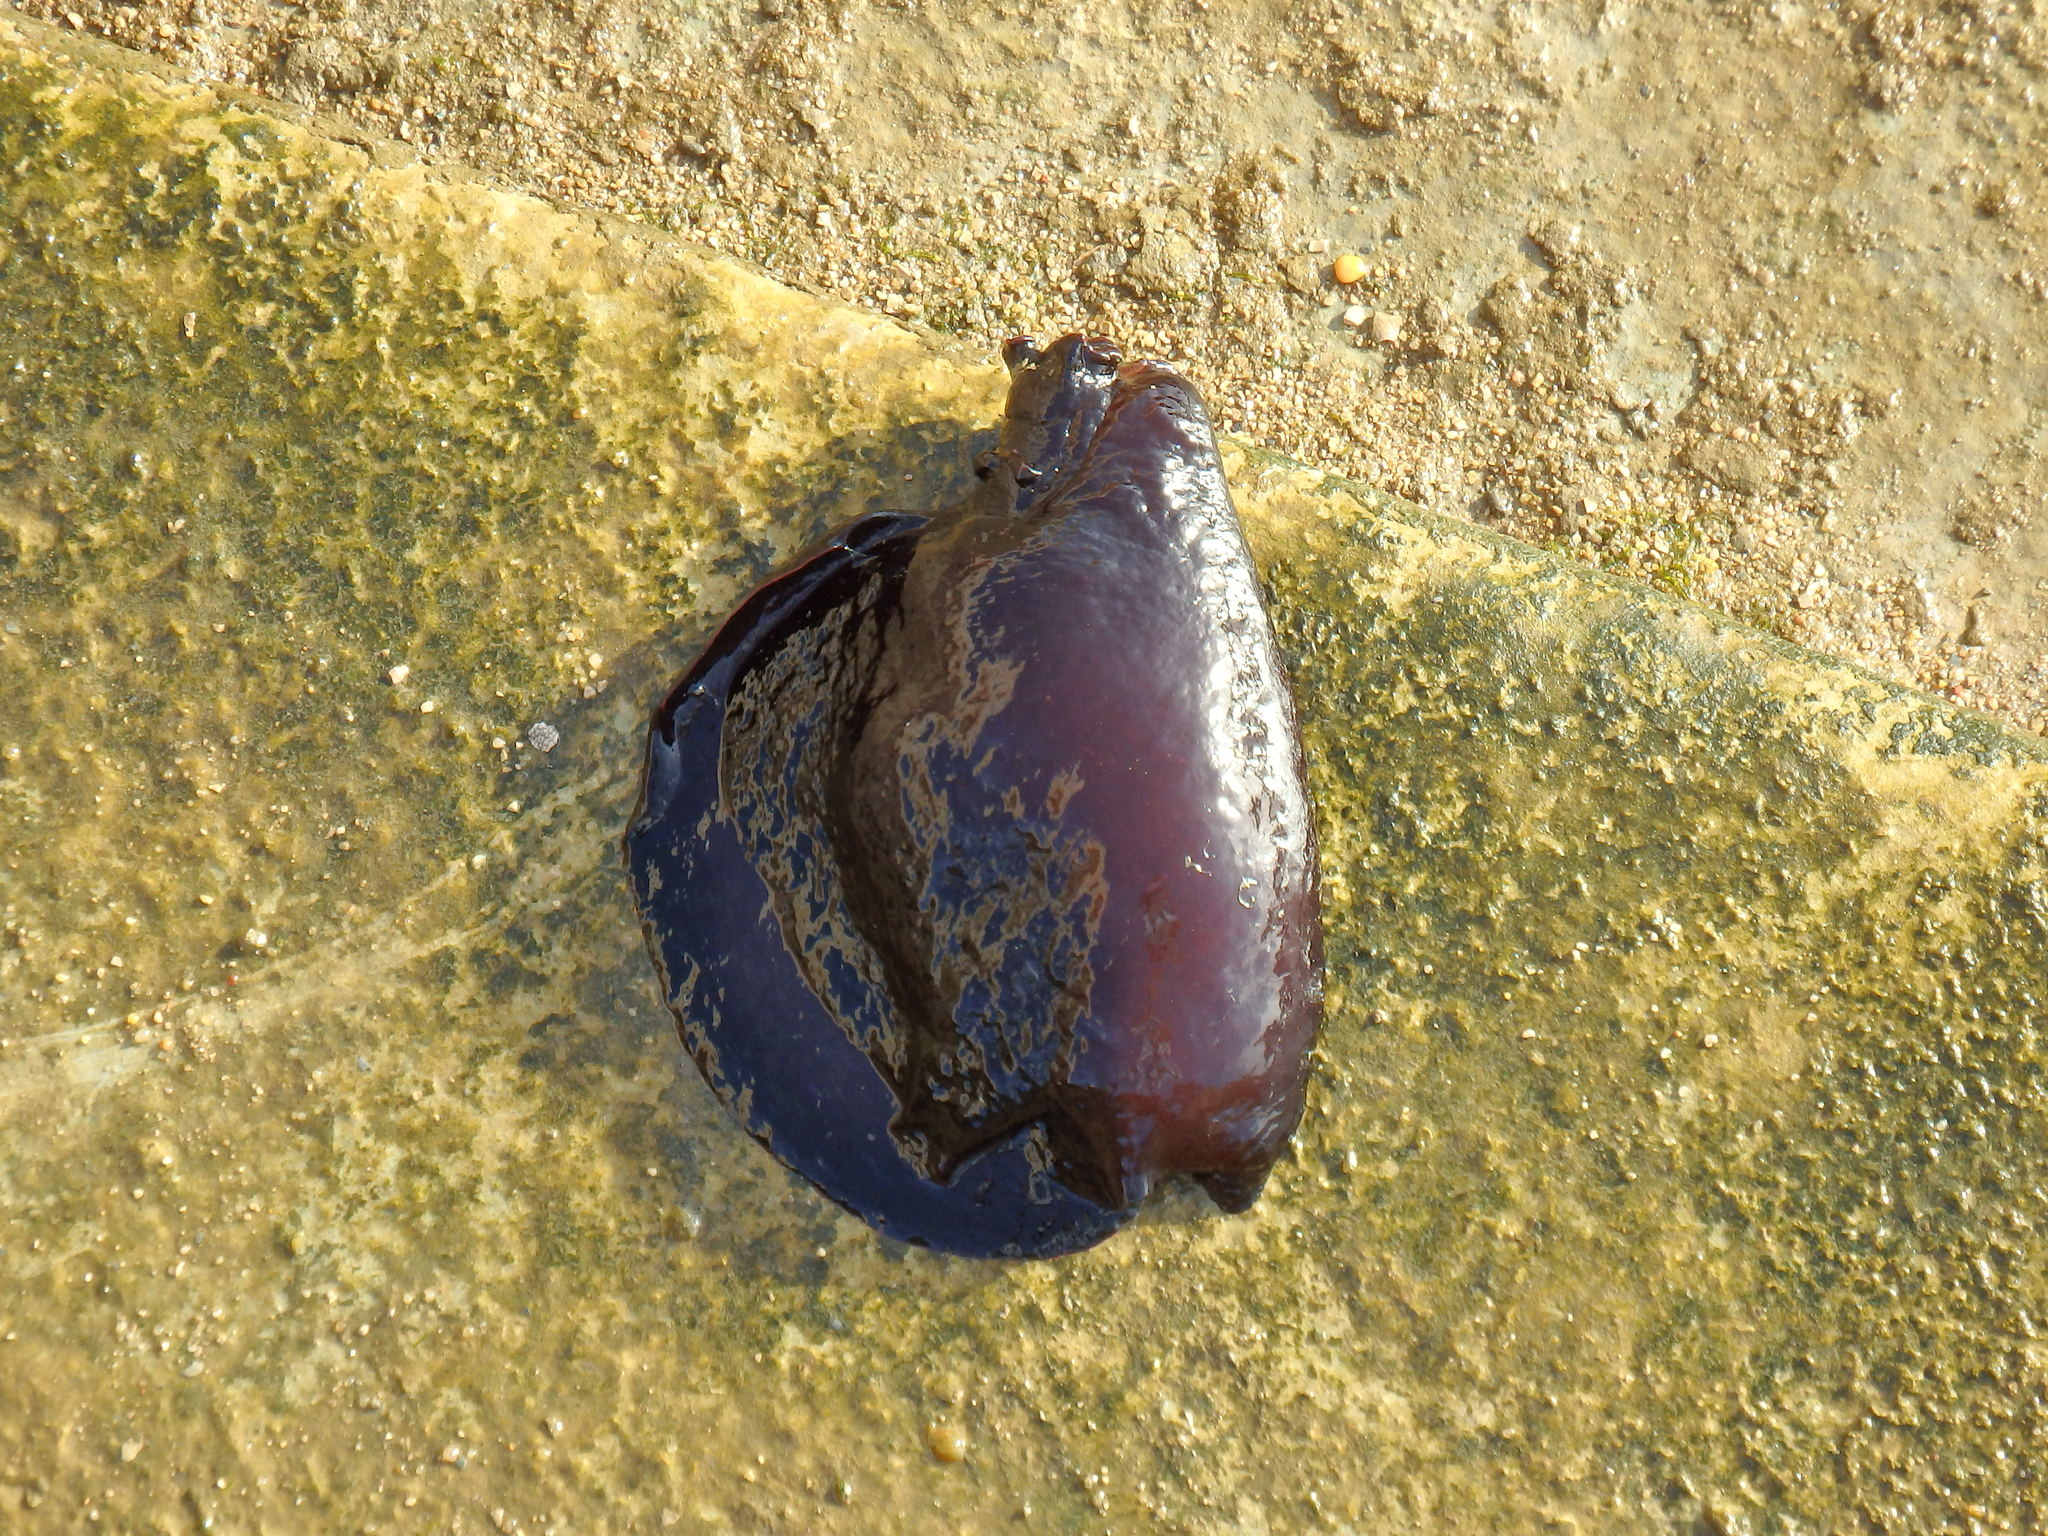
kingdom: Animalia
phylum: Mollusca
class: Gastropoda
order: Aplysiida
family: Aplysiidae
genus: Aplysia
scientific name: Aplysia fasciata
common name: Banded sea hare
